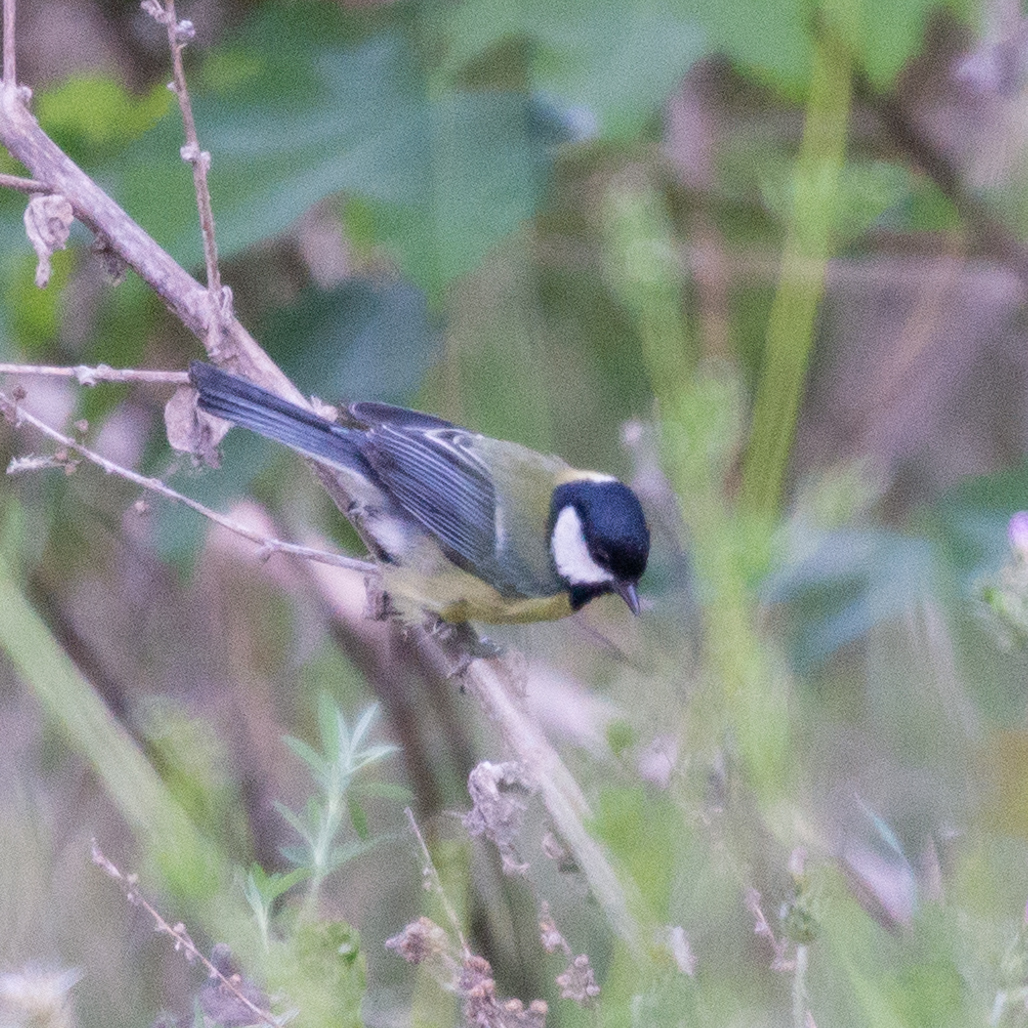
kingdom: Animalia
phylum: Chordata
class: Aves
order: Passeriformes
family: Paridae
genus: Parus
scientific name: Parus major
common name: Great tit
